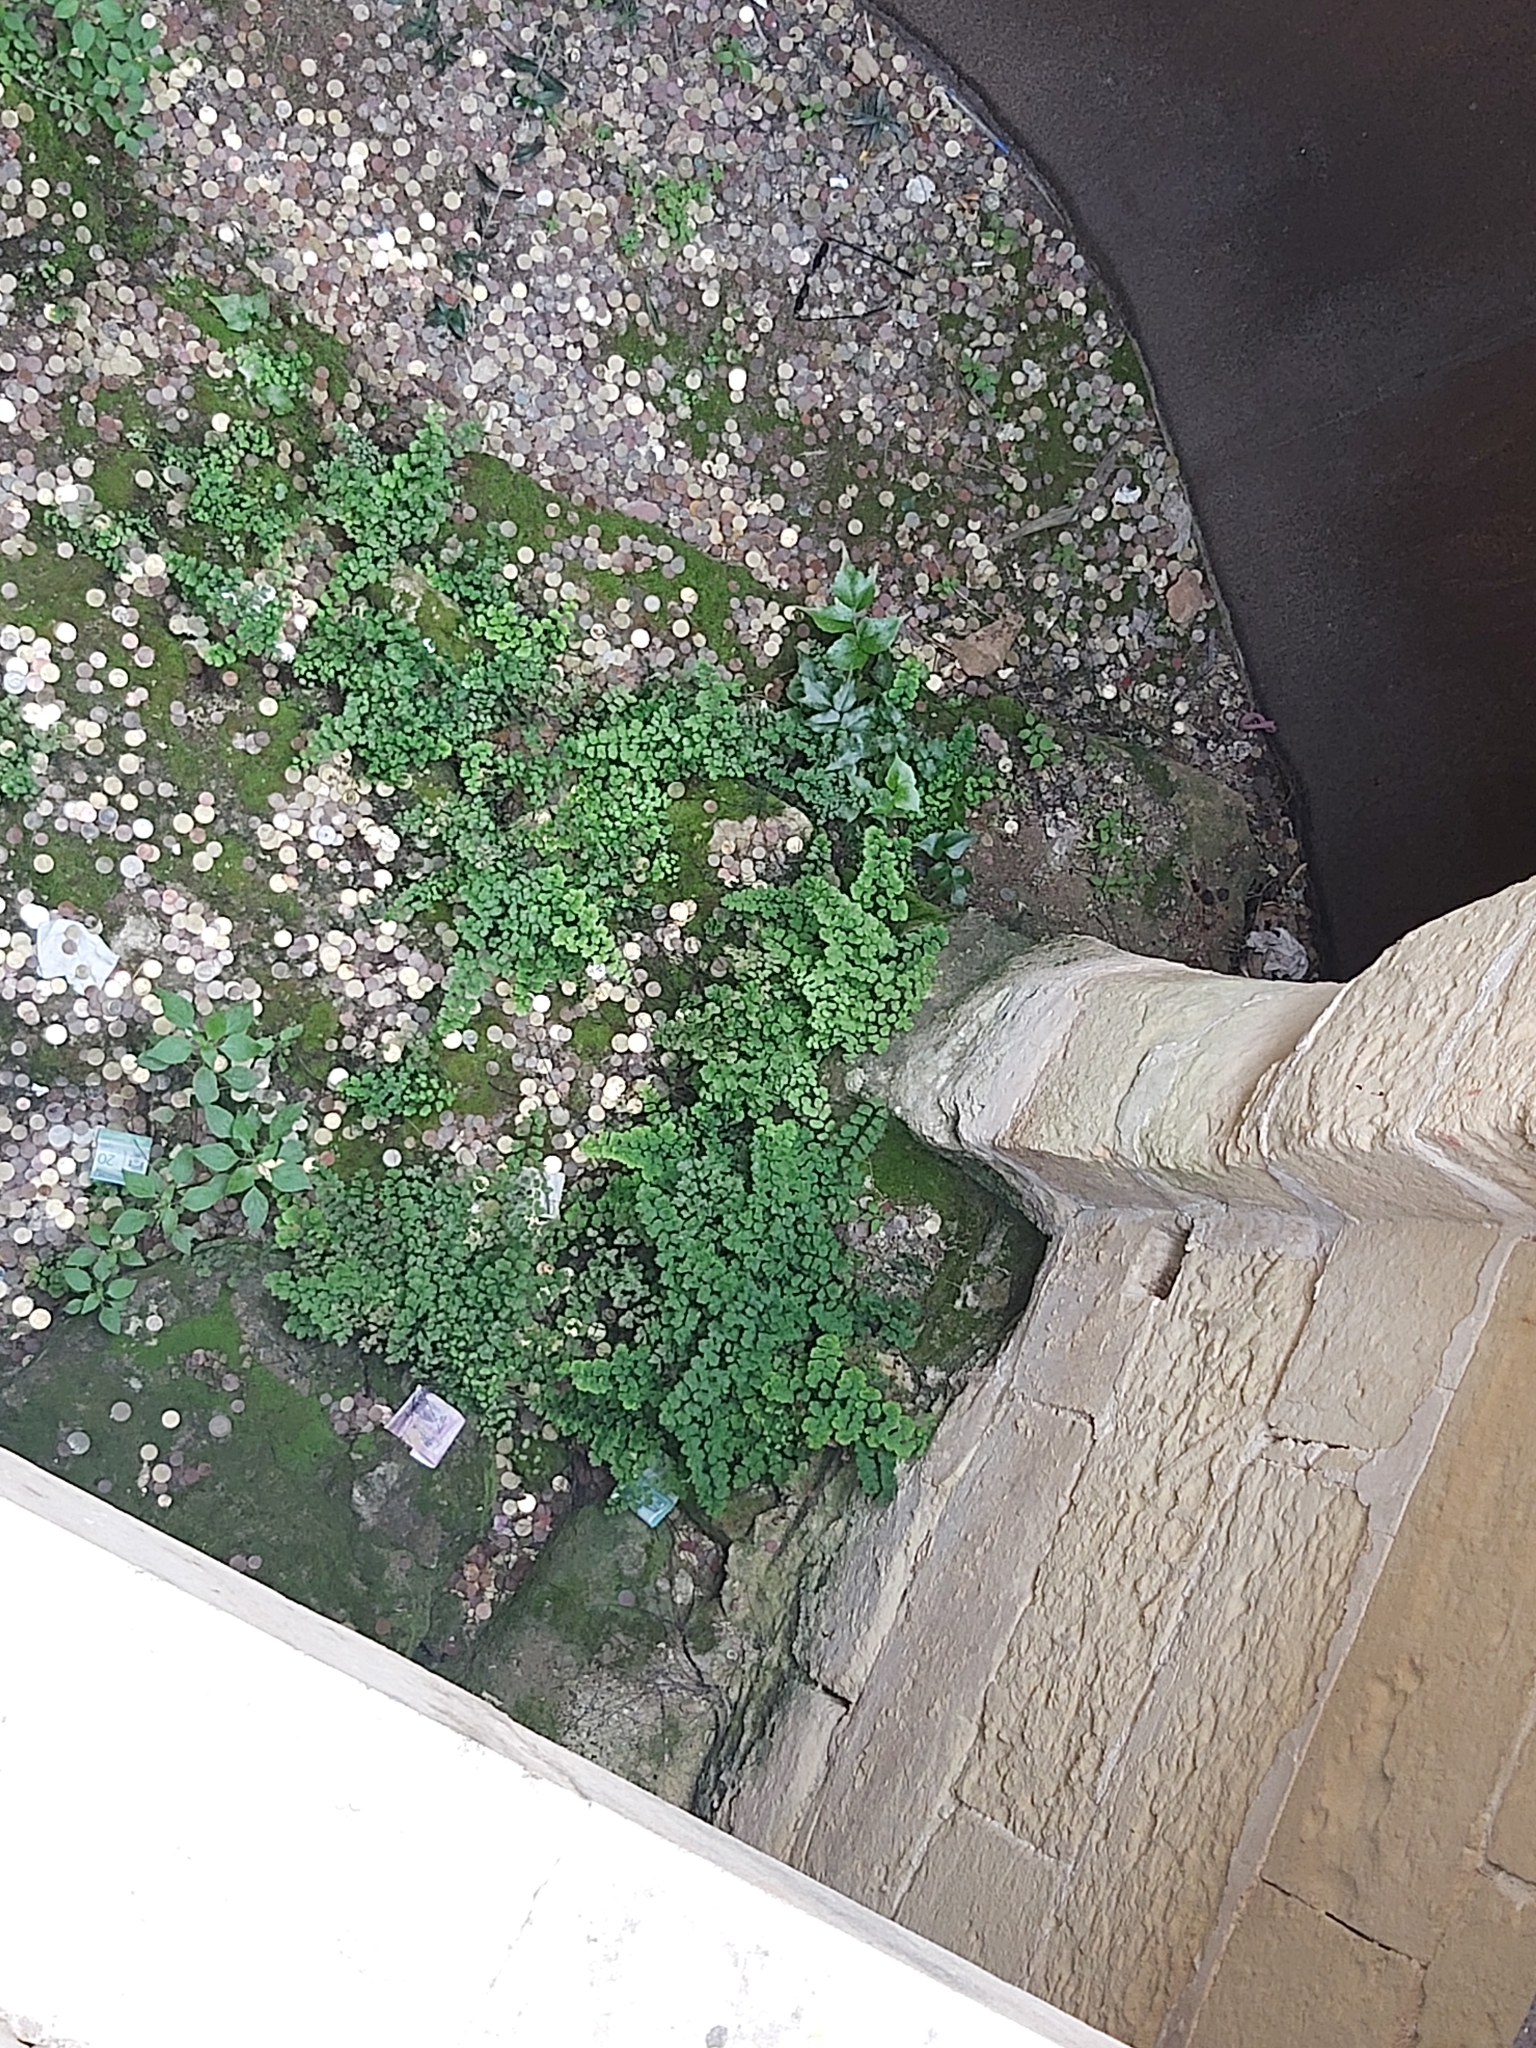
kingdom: Plantae
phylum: Tracheophyta
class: Polypodiopsida
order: Polypodiales
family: Pteridaceae
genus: Adiantum
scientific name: Adiantum capillus-veneris
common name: Maidenhair fern
